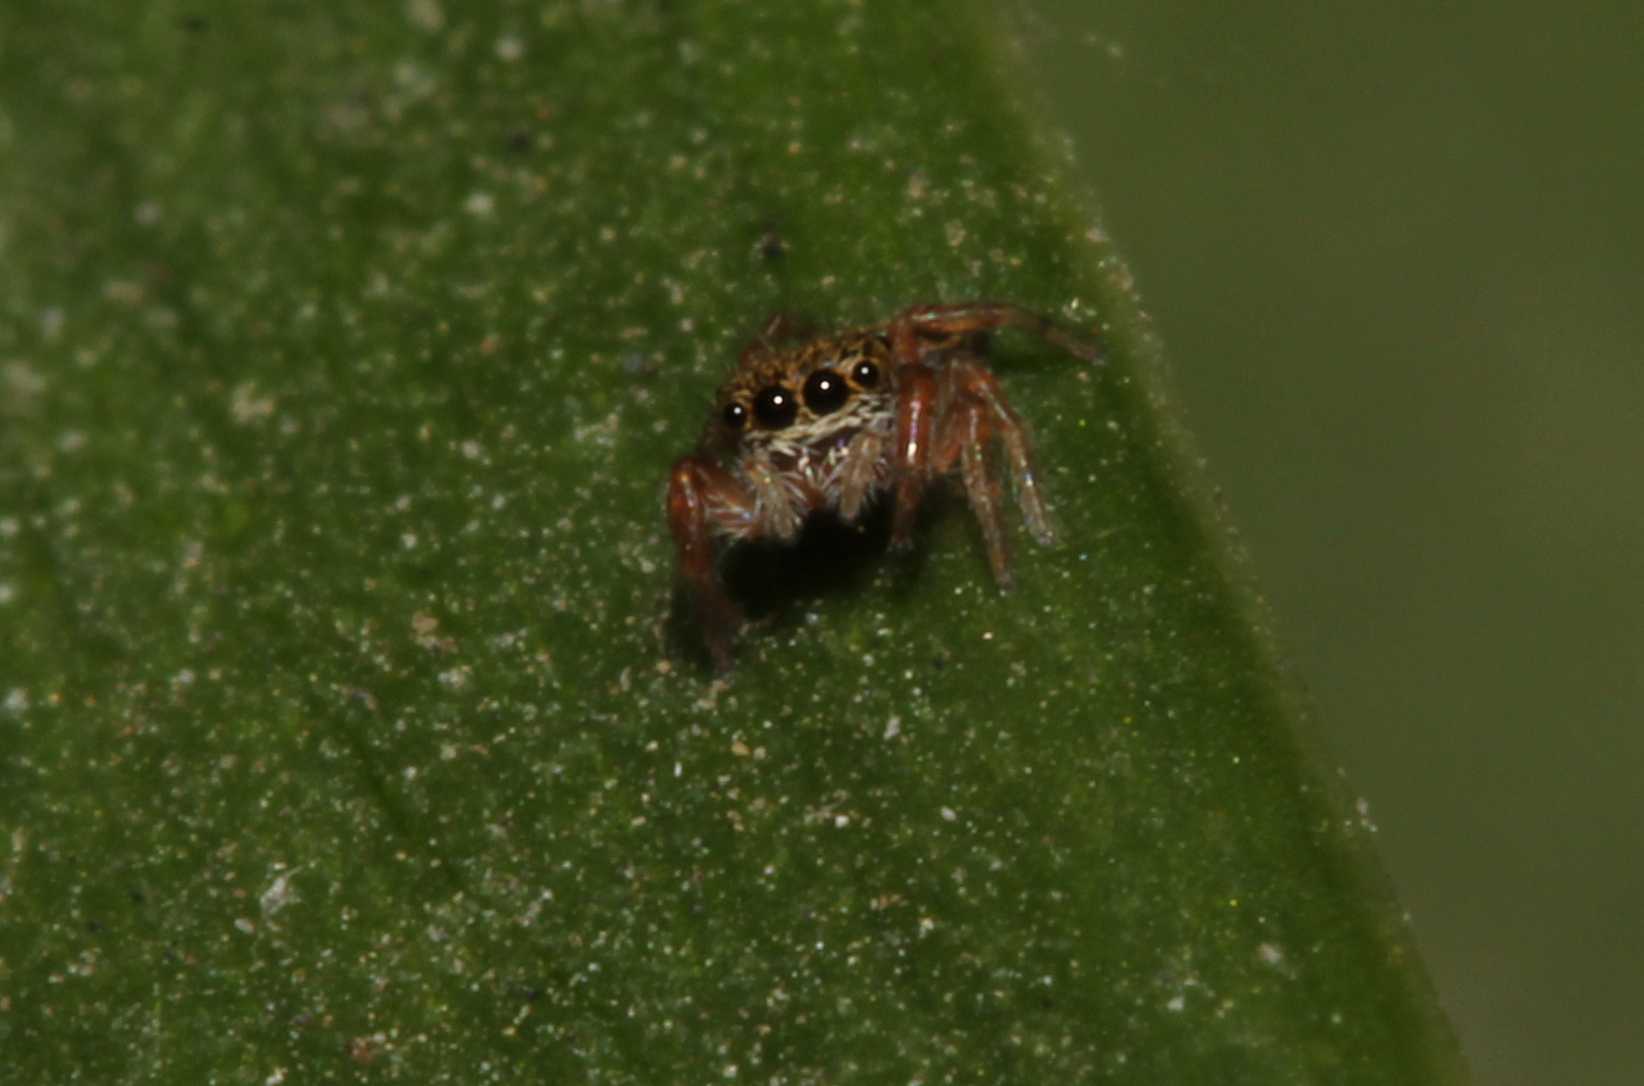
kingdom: Animalia
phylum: Arthropoda
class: Arachnida
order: Araneae
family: Salticidae
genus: Paraphidippus
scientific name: Paraphidippus
